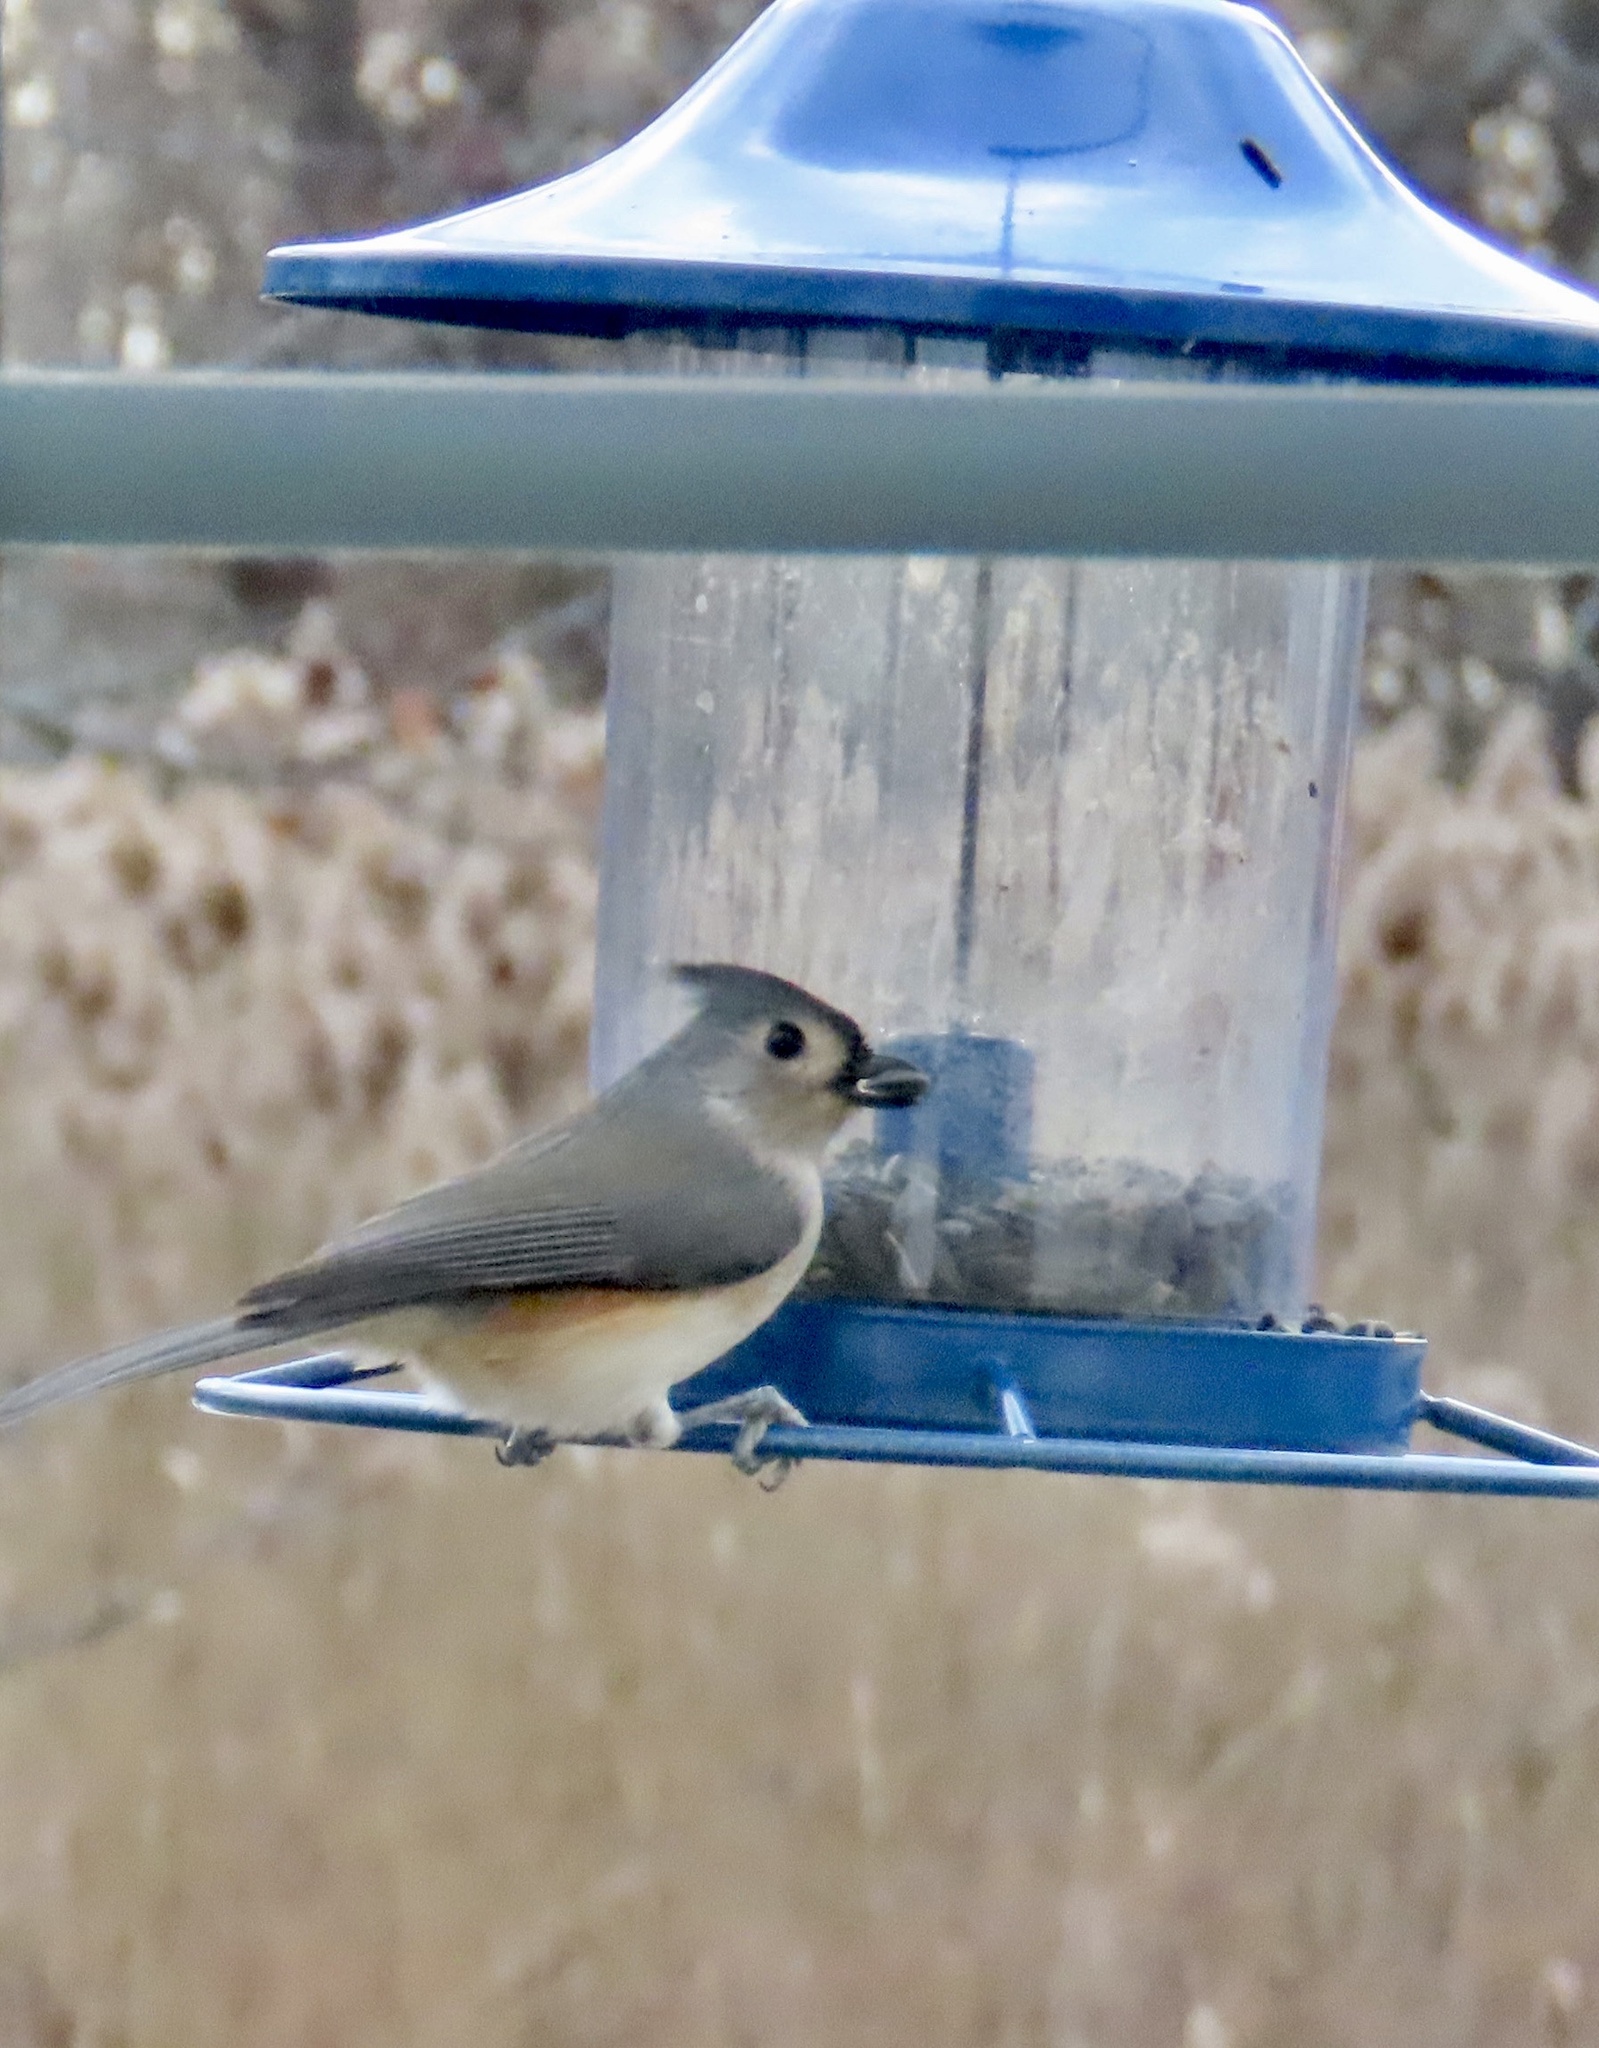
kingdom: Animalia
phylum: Chordata
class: Aves
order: Passeriformes
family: Paridae
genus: Baeolophus
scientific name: Baeolophus bicolor
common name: Tufted titmouse
